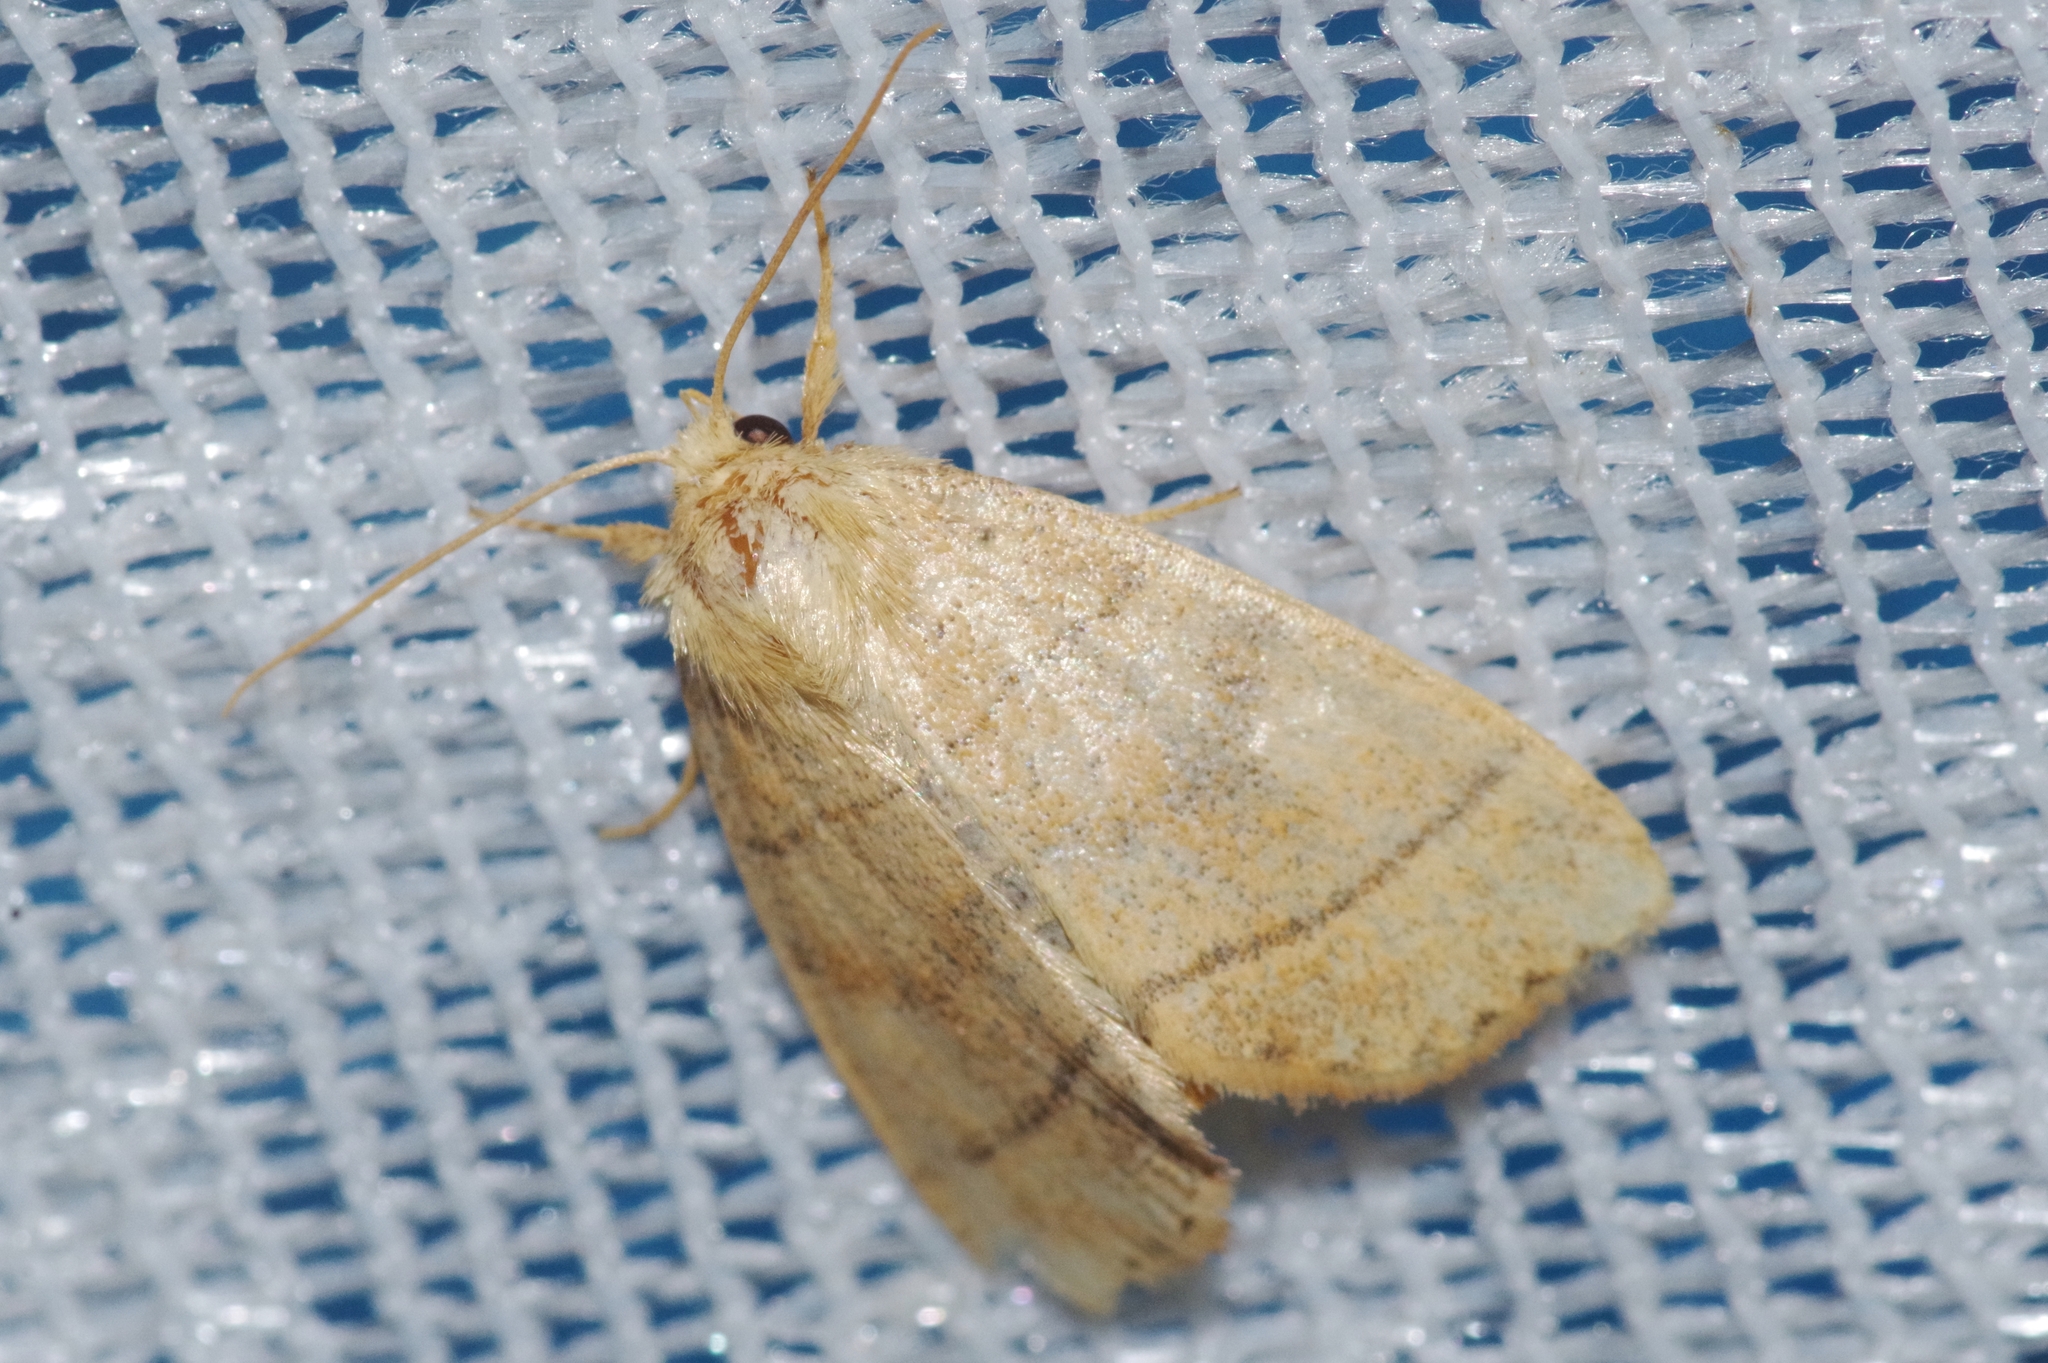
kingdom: Animalia
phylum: Arthropoda
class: Insecta
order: Lepidoptera
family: Noctuidae
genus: Enargia
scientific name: Enargia flavata
